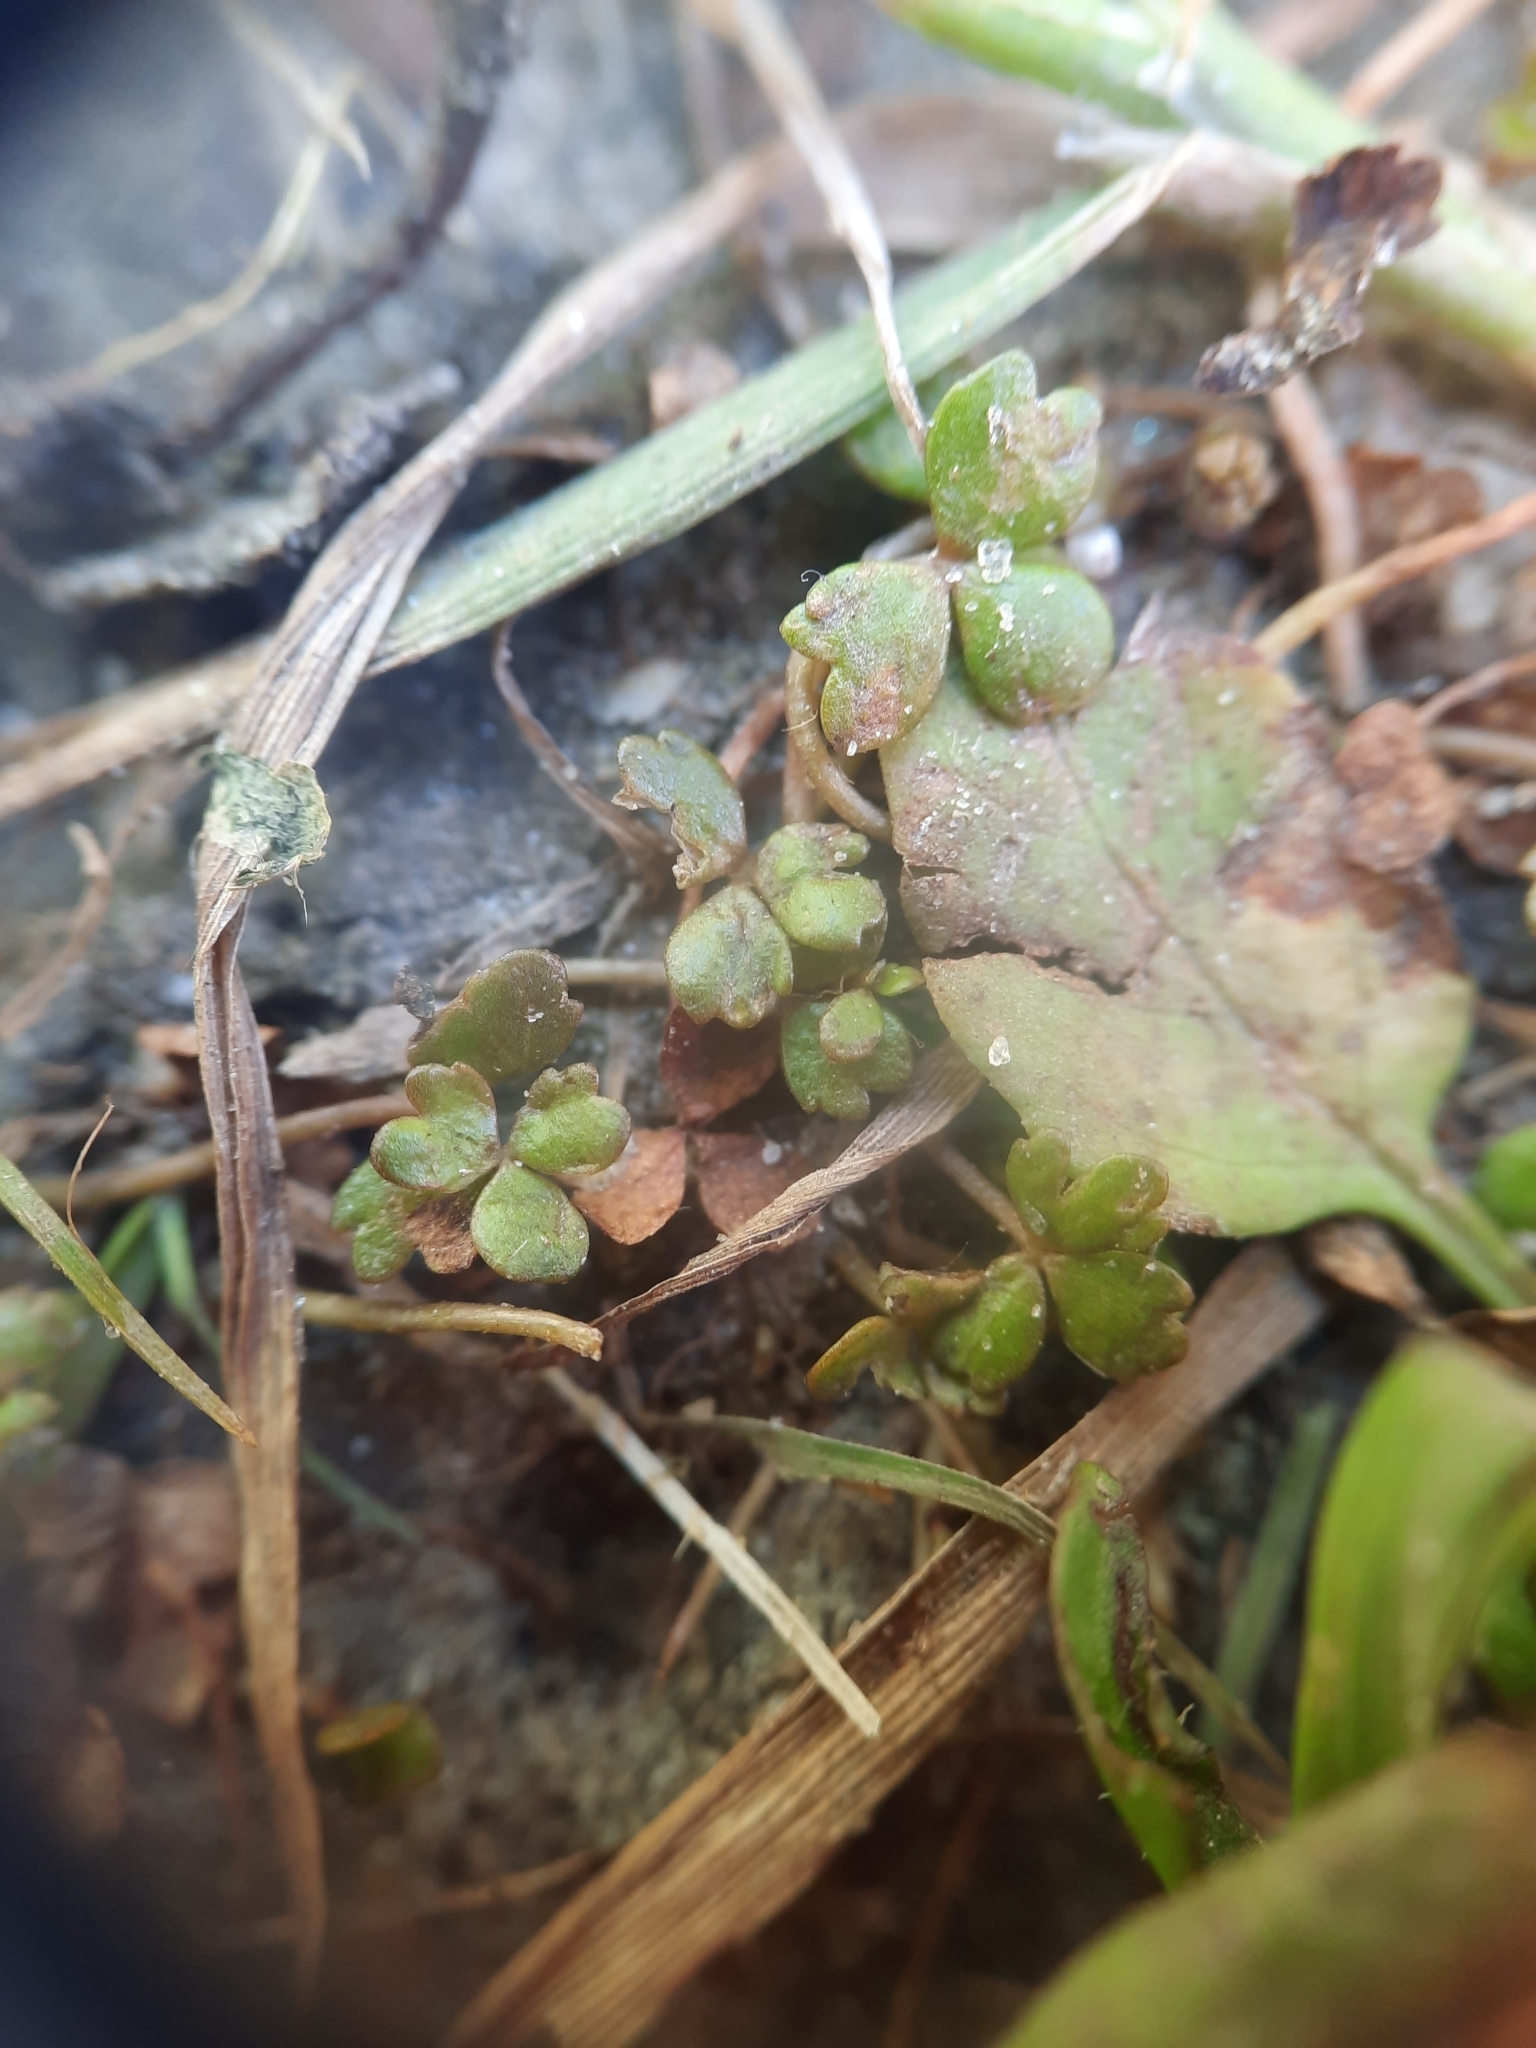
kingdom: Plantae
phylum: Tracheophyta
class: Magnoliopsida
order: Apiales
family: Araliaceae
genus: Hydrocotyle
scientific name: Hydrocotyle sulcata
